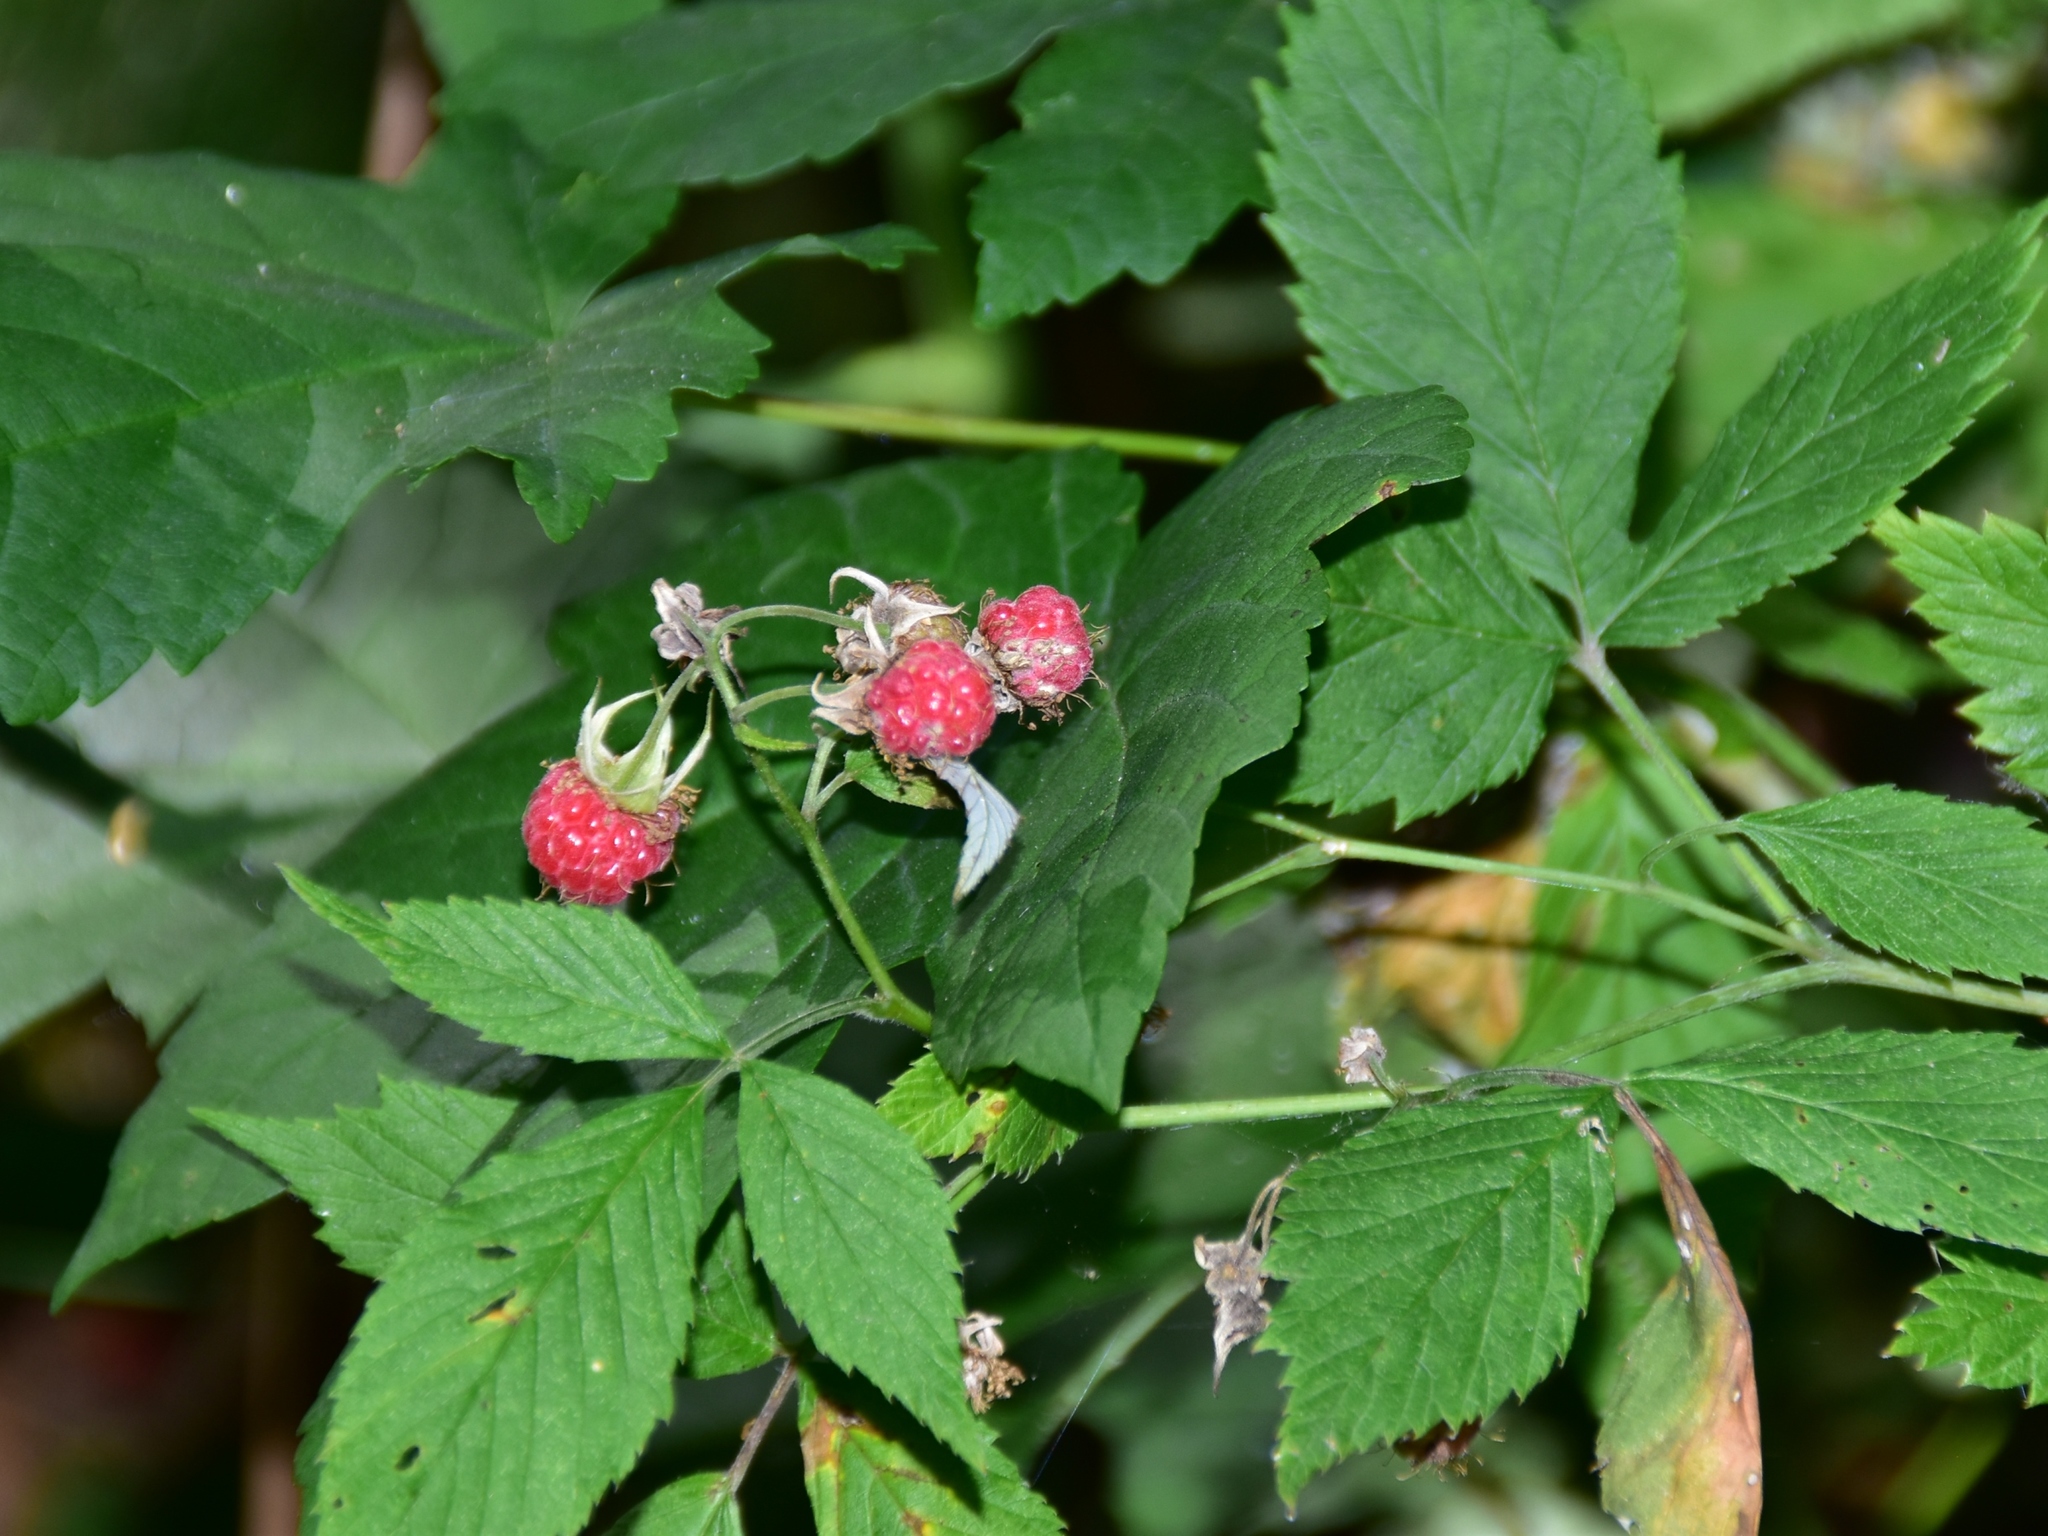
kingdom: Plantae
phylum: Tracheophyta
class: Magnoliopsida
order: Rosales
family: Rosaceae
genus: Rubus
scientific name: Rubus idaeus
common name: Raspberry
